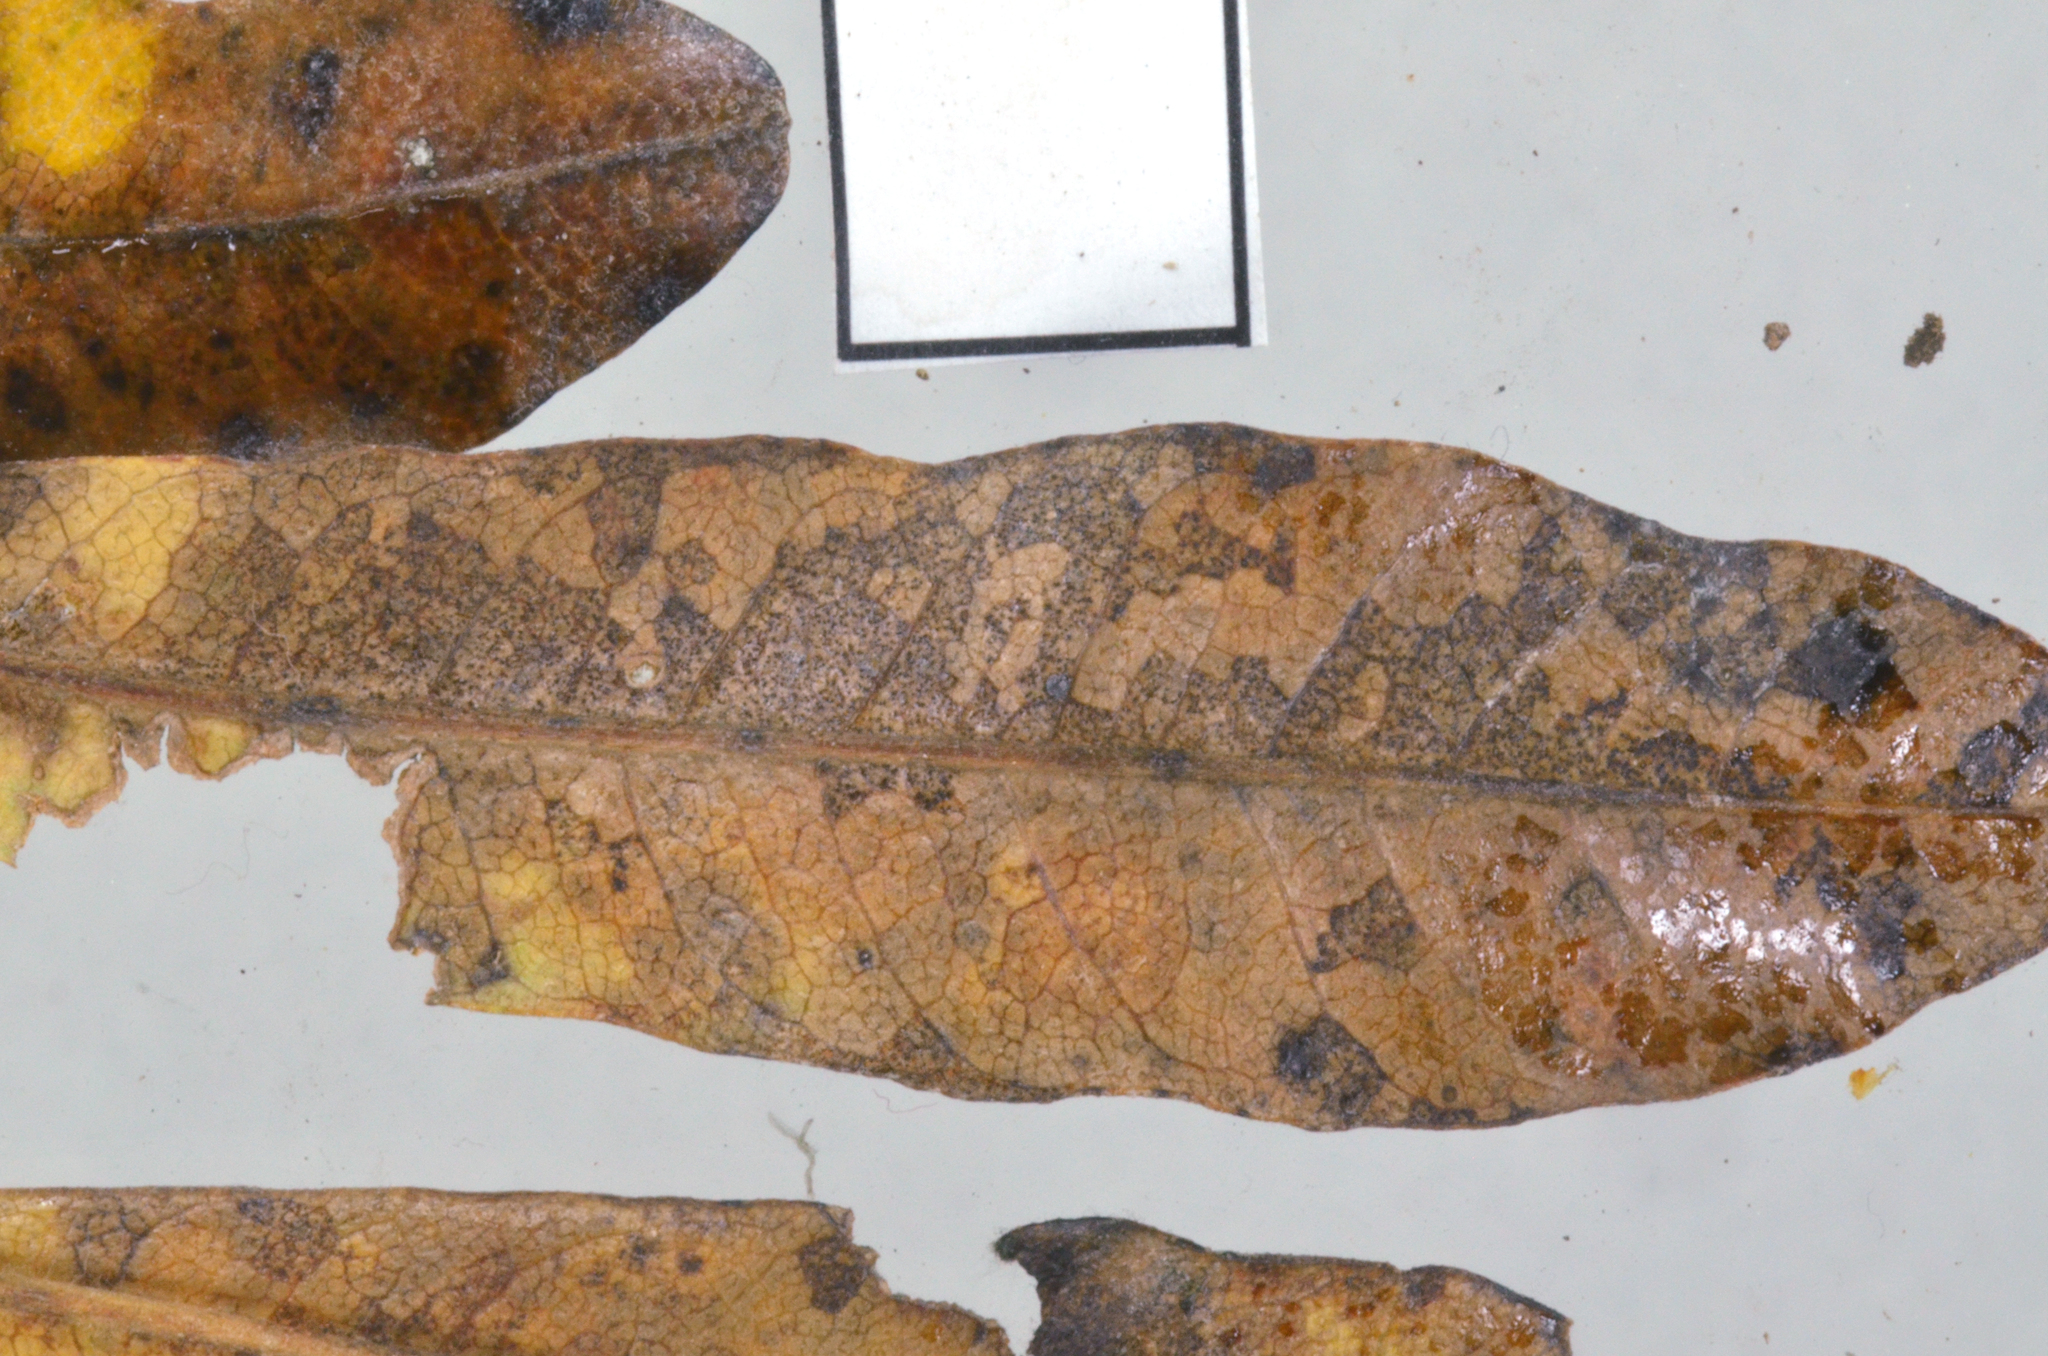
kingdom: Fungi
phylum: Ascomycota
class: Dothideomycetes
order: Mycosphaerellales
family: Mycosphaerellaceae
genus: Phloeospora
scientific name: Phloeospora dodonaeae
